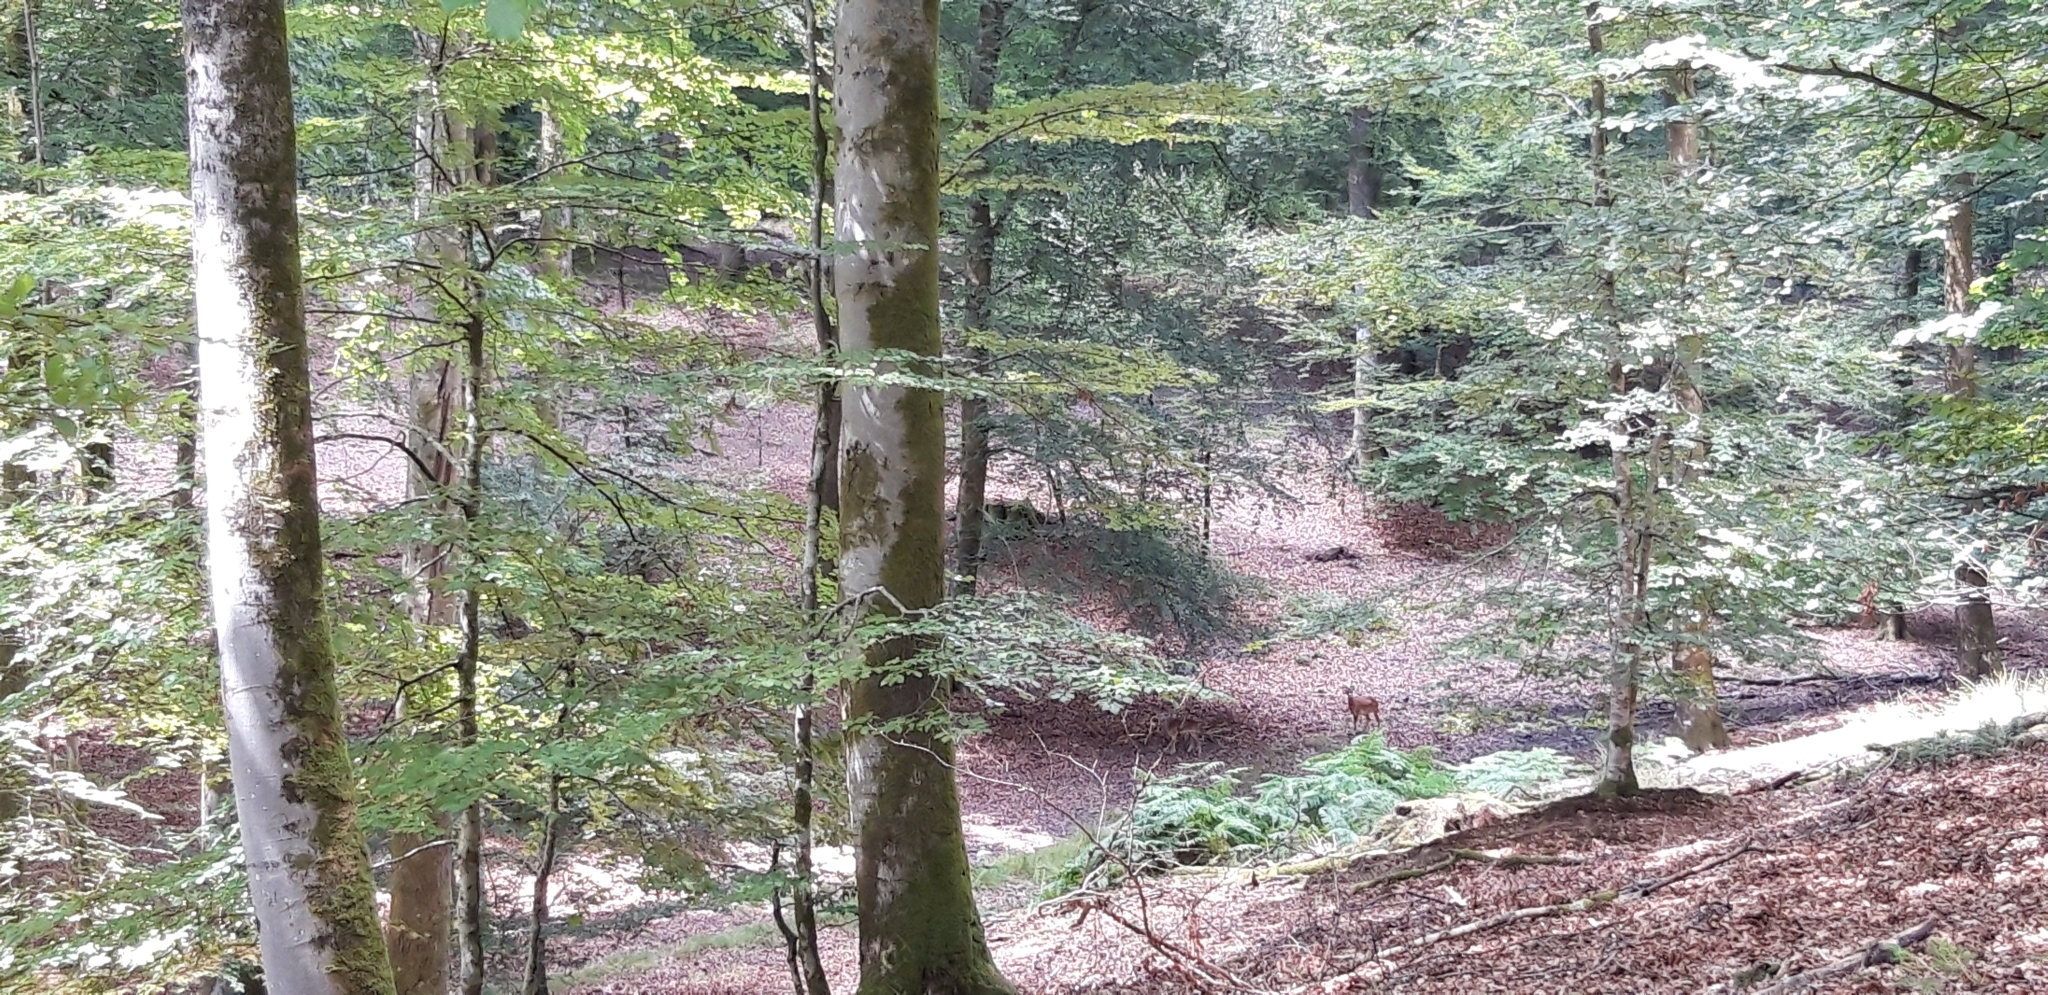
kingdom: Animalia
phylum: Chordata
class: Mammalia
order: Artiodactyla
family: Bovidae
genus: Ovis
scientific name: Ovis aries
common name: Domestic sheep
